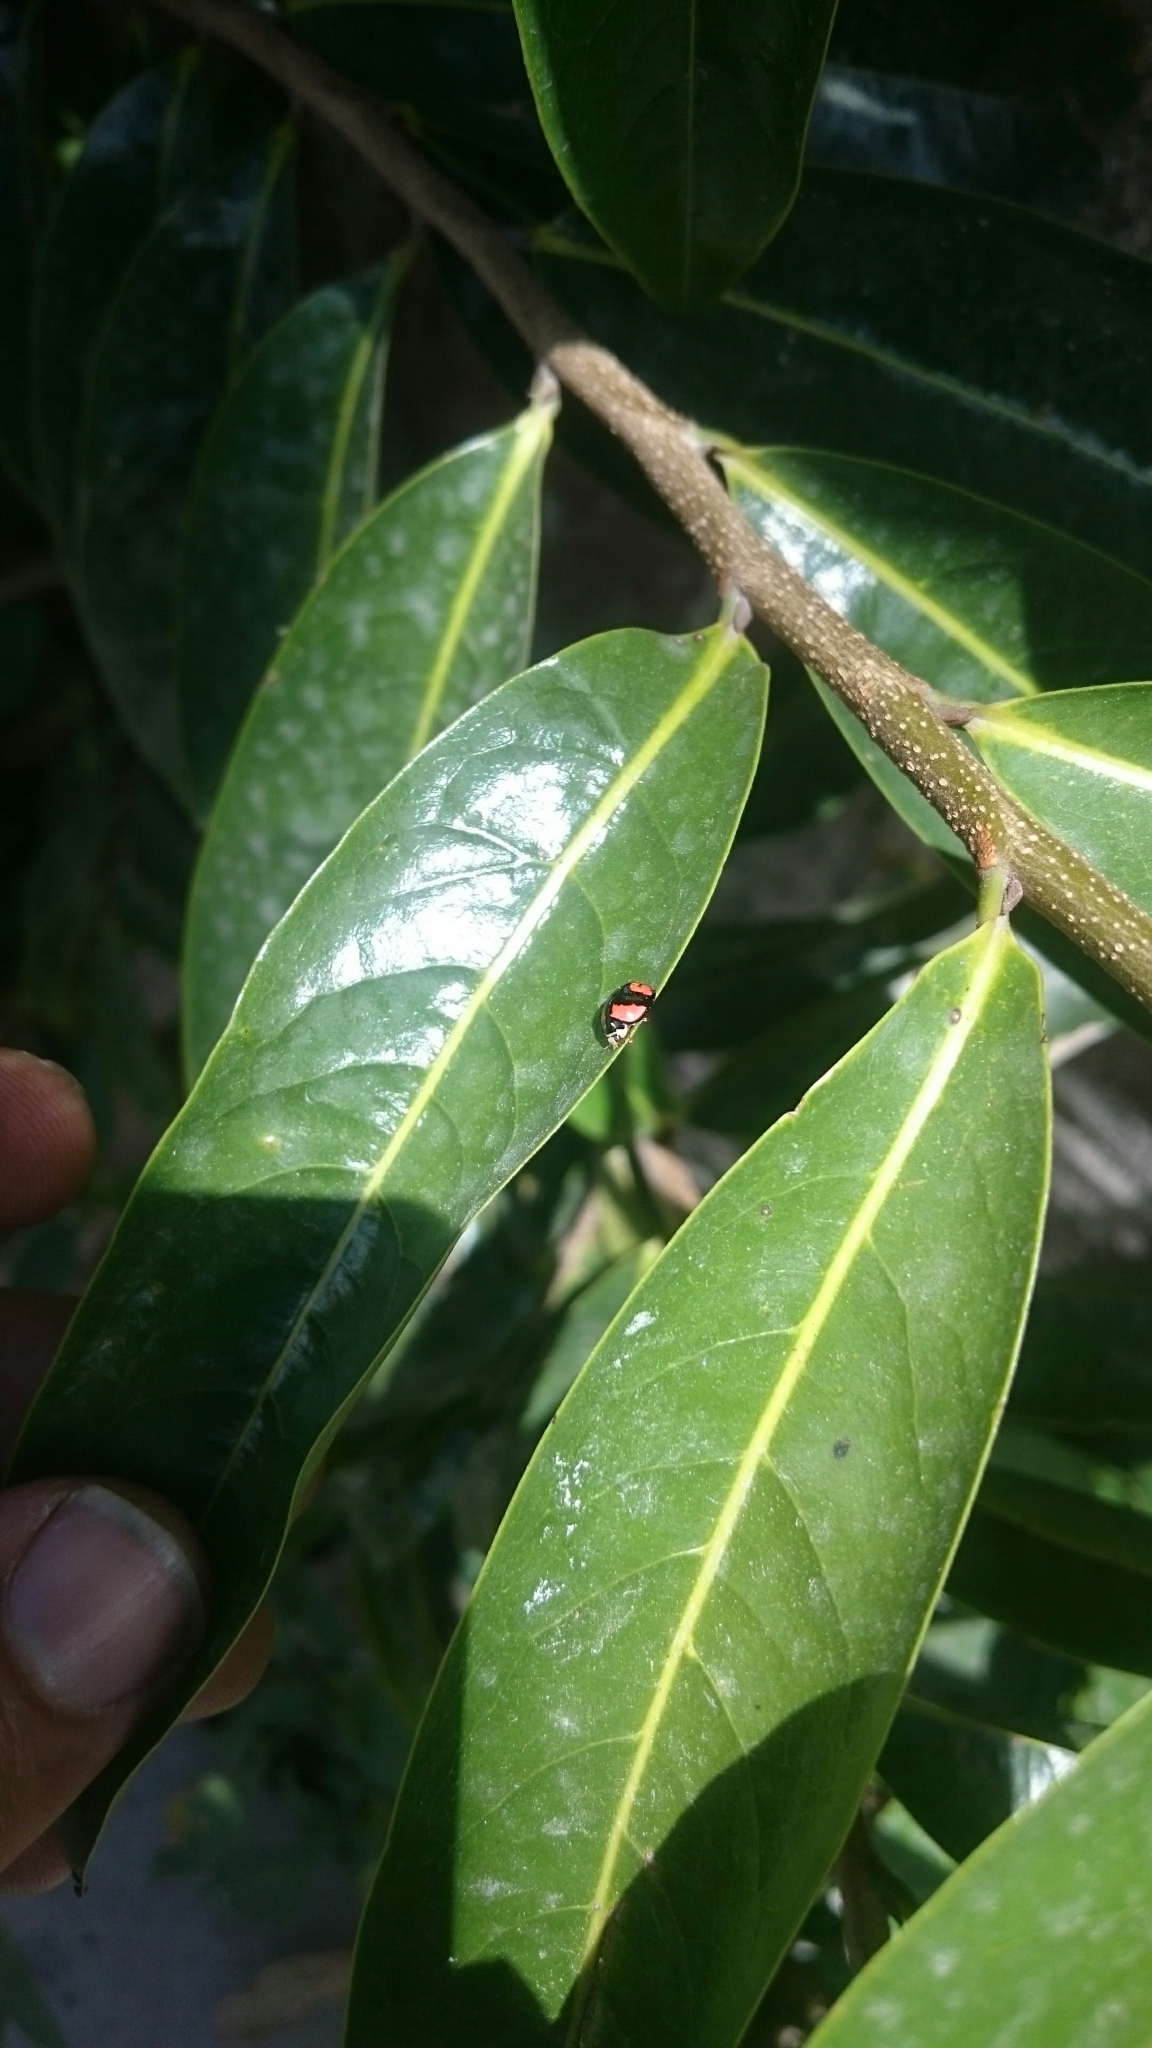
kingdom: Animalia
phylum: Arthropoda
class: Insecta
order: Coleoptera
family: Coccinellidae
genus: Cheilomenes
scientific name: Cheilomenes sexmaculata
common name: Ladybird beetle
